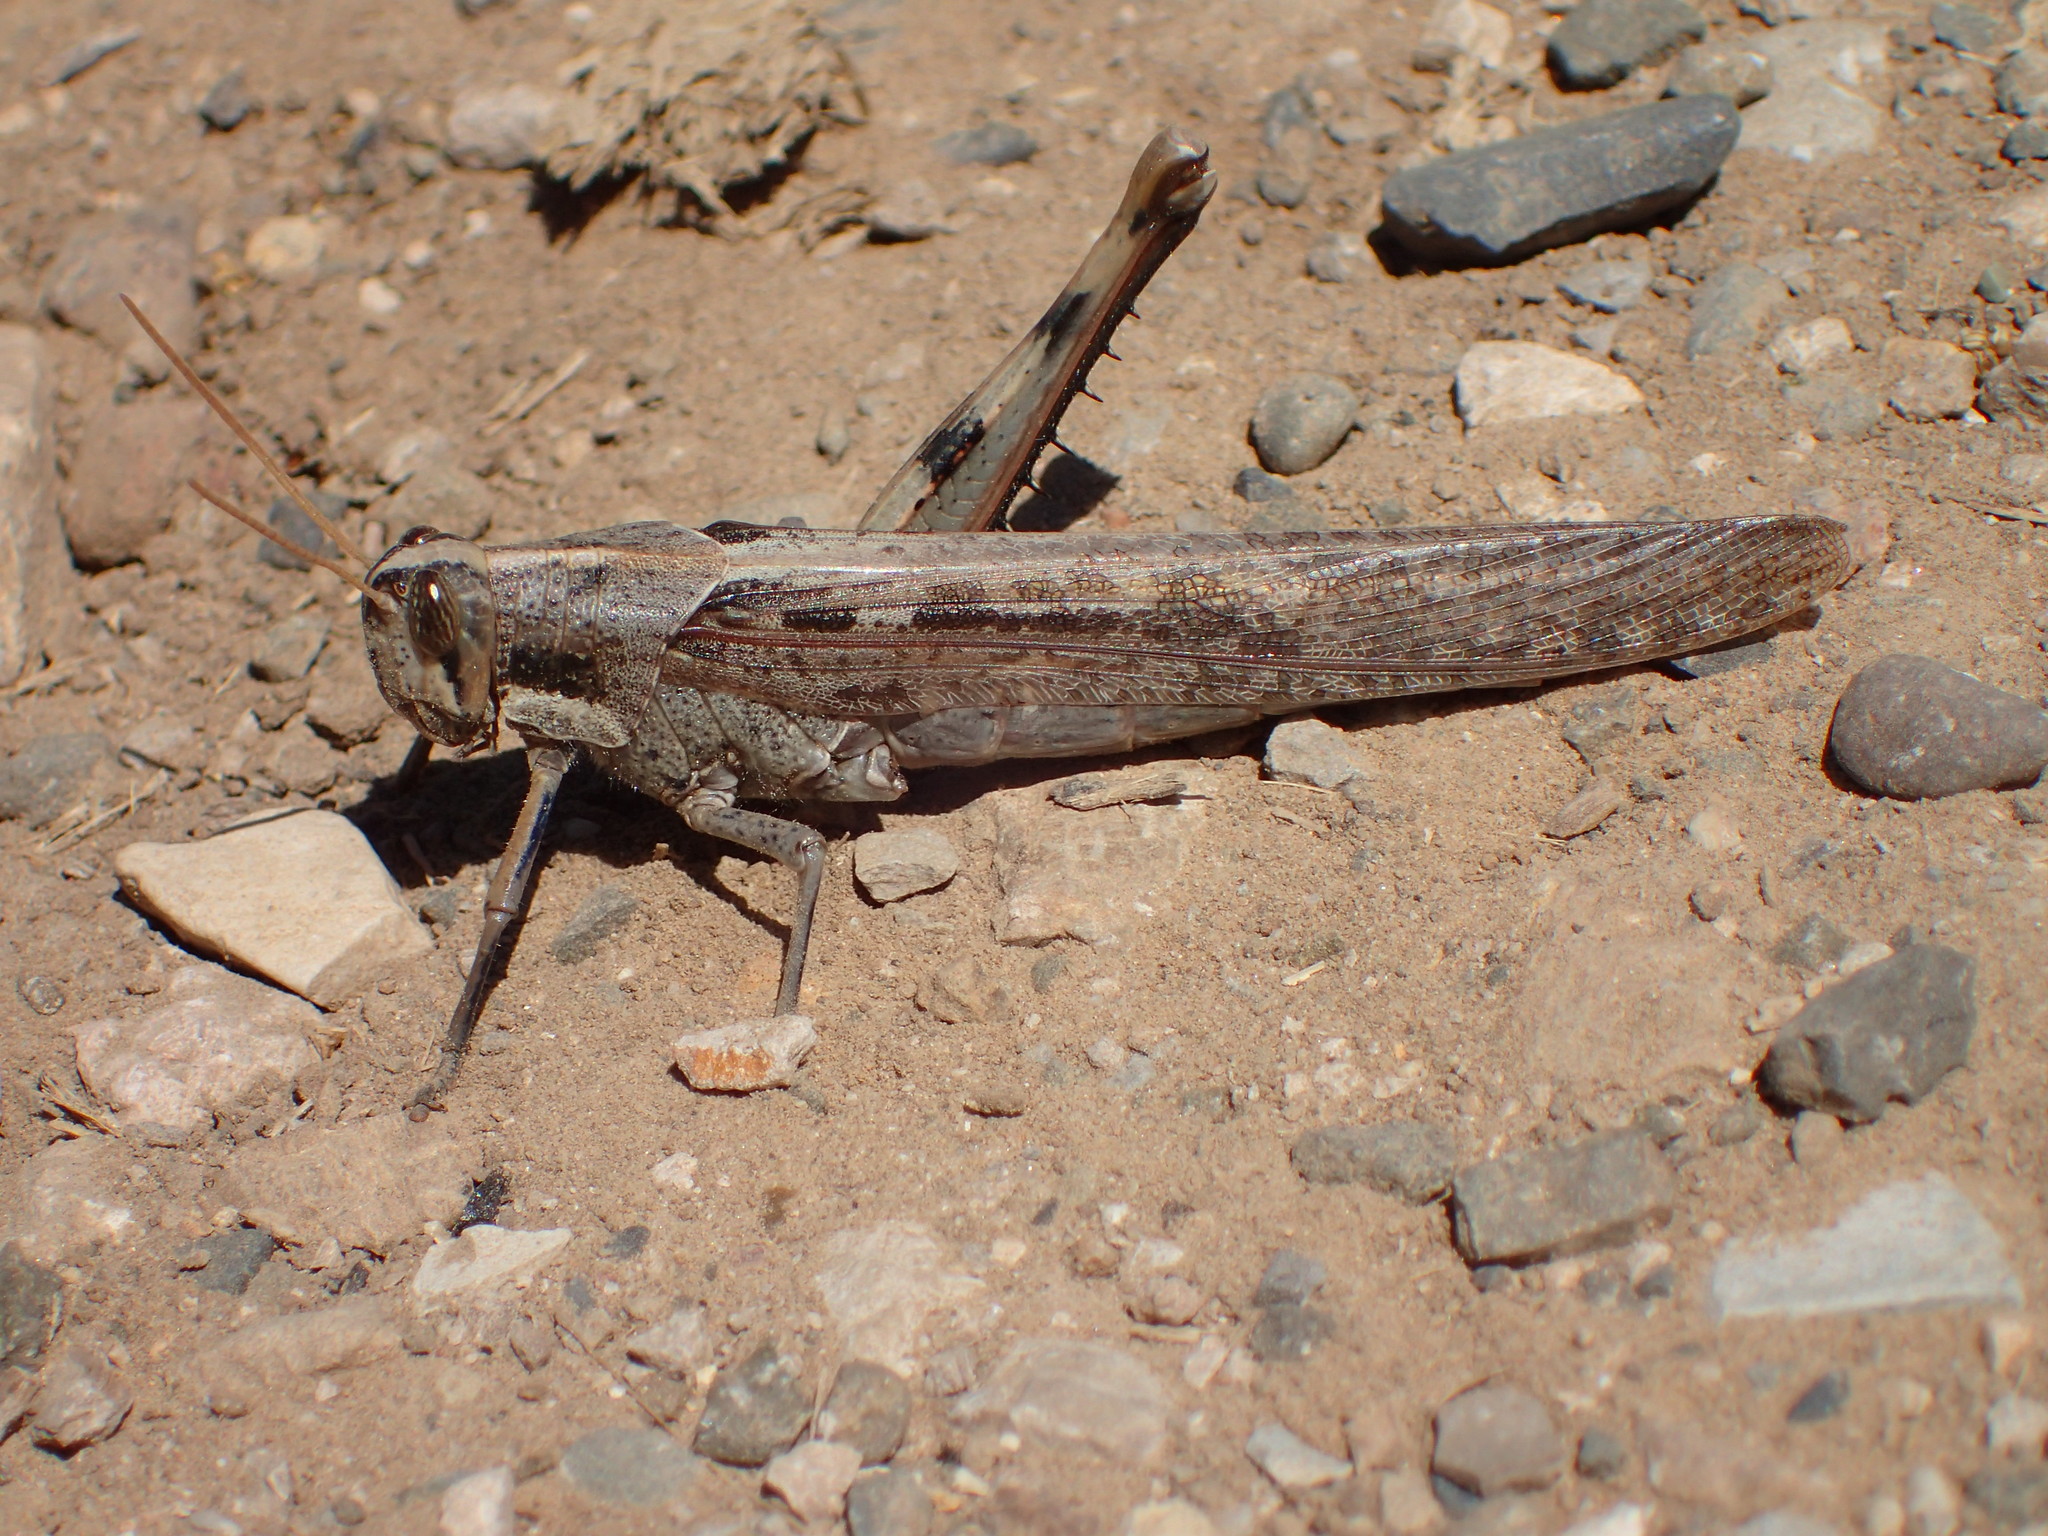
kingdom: Animalia
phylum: Arthropoda
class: Insecta
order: Orthoptera
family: Acrididae
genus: Schistocerca
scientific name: Schistocerca nitens
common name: Vagrant grasshopper
